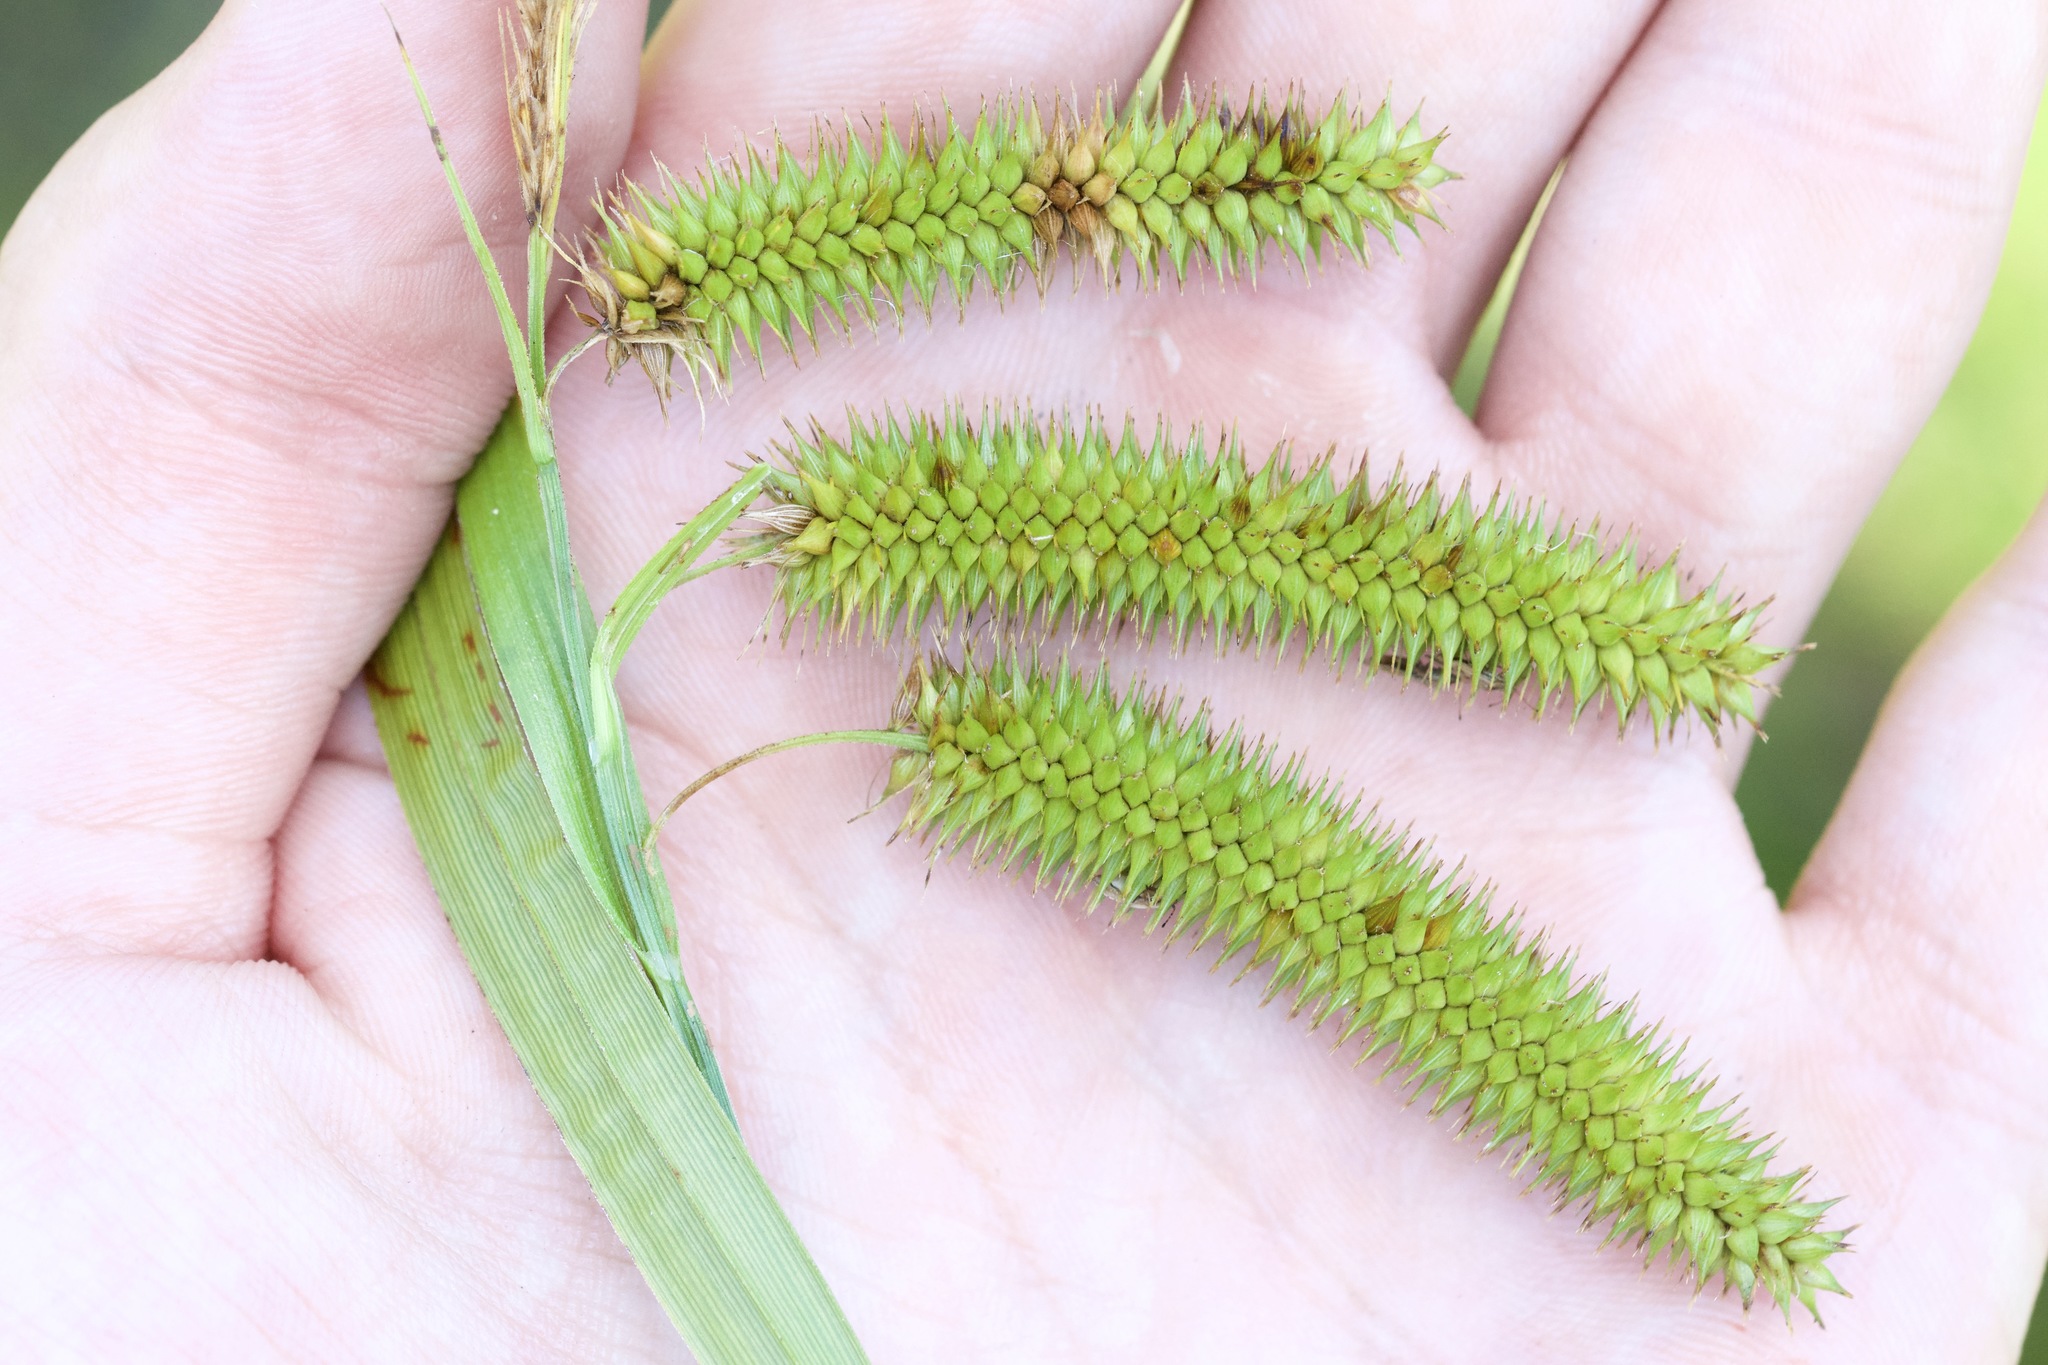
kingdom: Plantae
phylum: Tracheophyta
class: Liliopsida
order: Poales
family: Cyperaceae
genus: Carex
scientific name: Carex pseudocyperus
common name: Cyperus sedge
